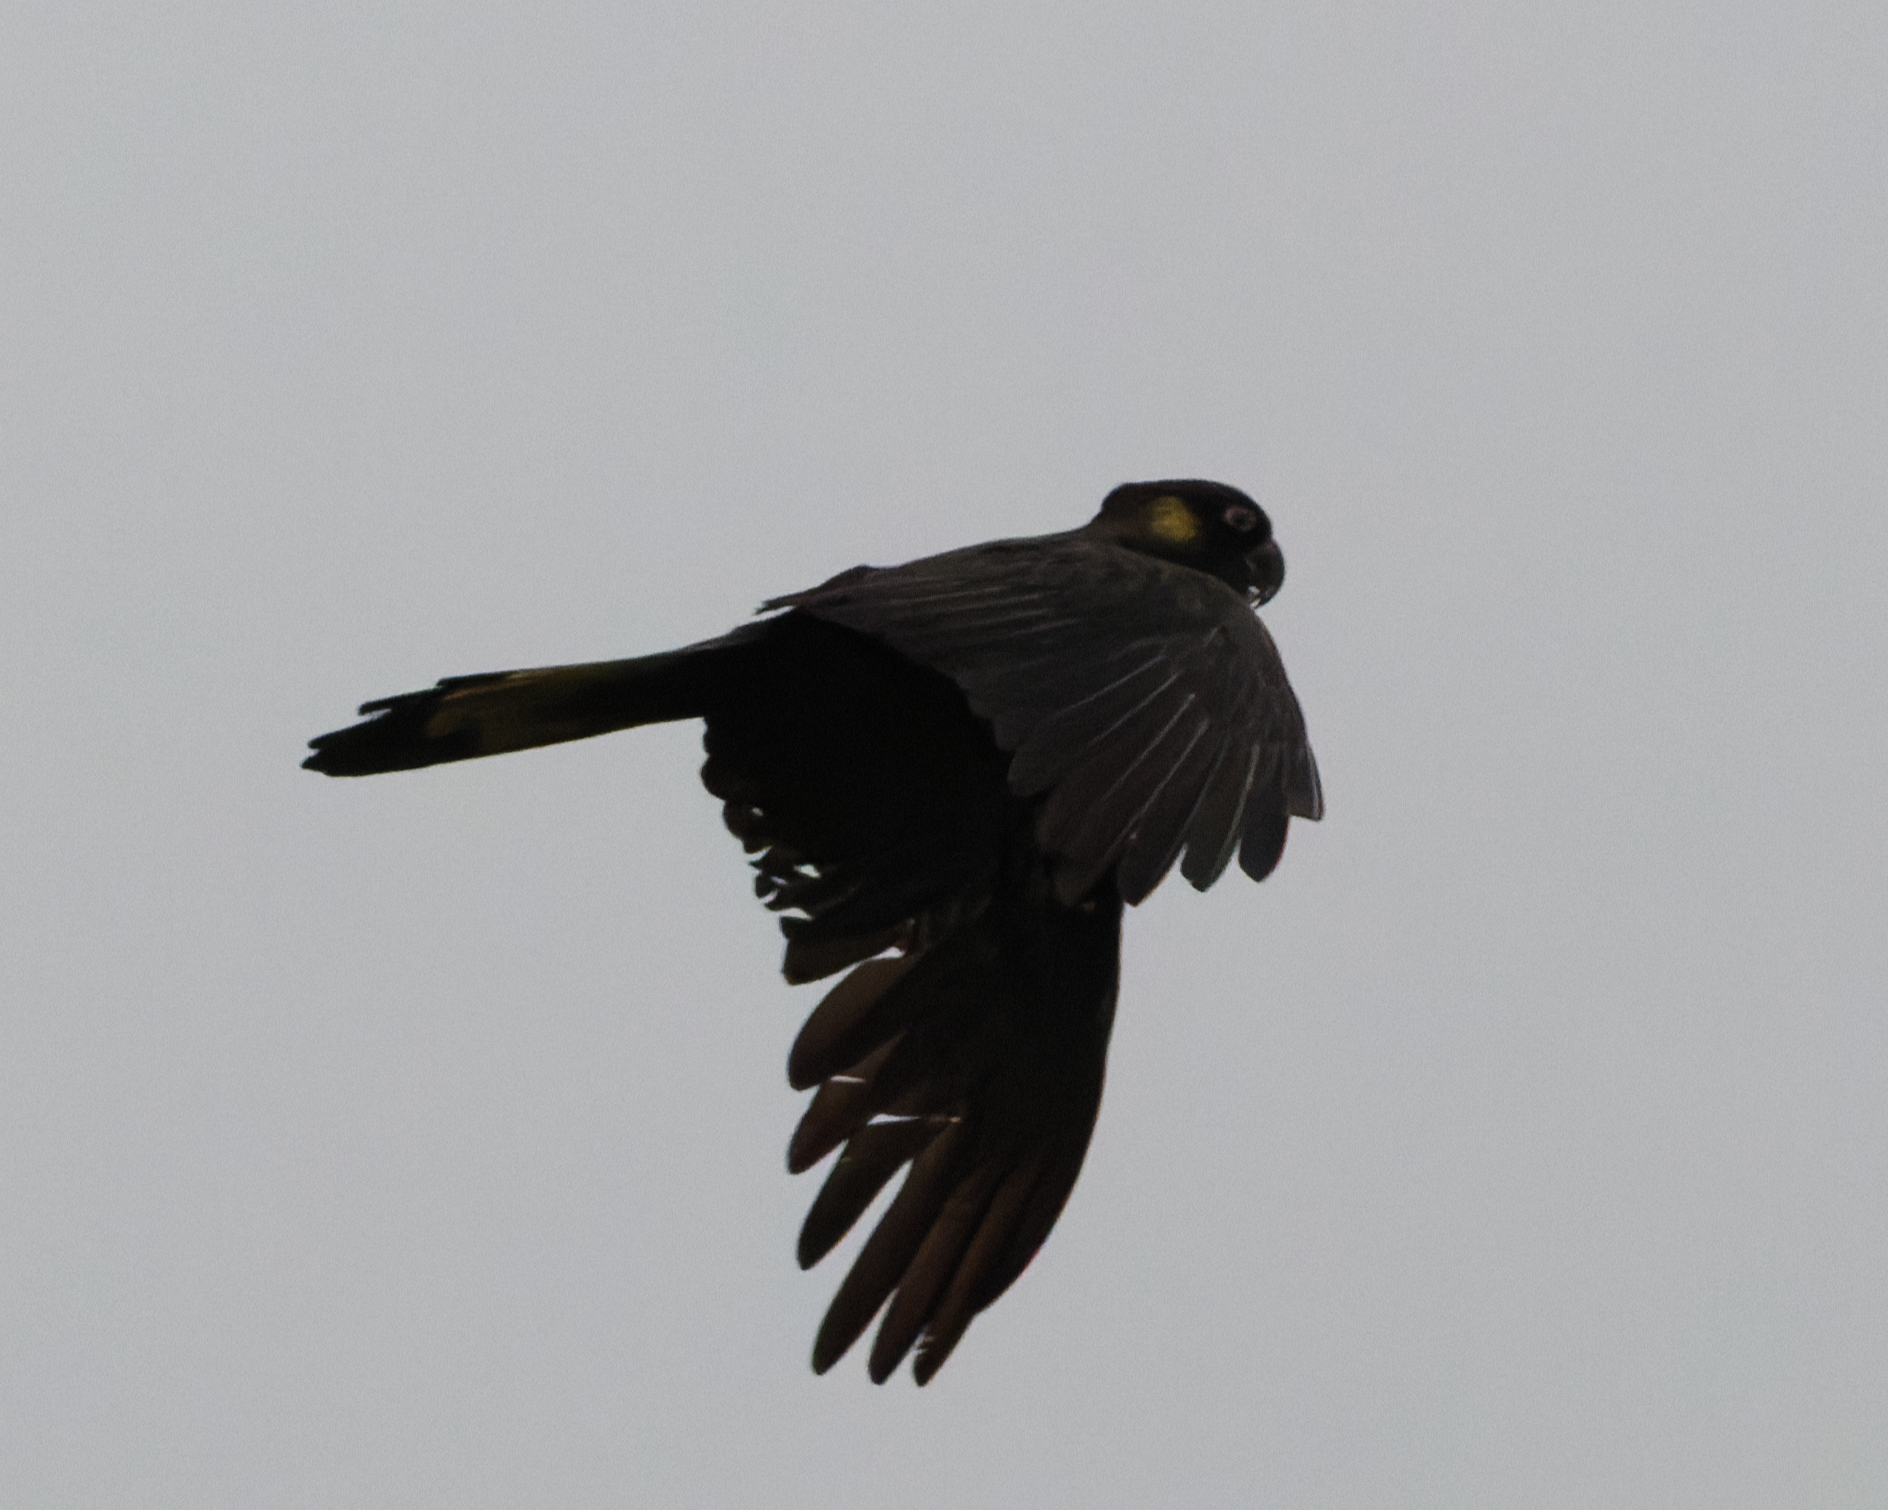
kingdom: Animalia
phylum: Chordata
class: Aves
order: Psittaciformes
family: Cacatuidae
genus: Zanda
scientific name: Zanda funerea
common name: Yellow-tailed black-cockatoo
